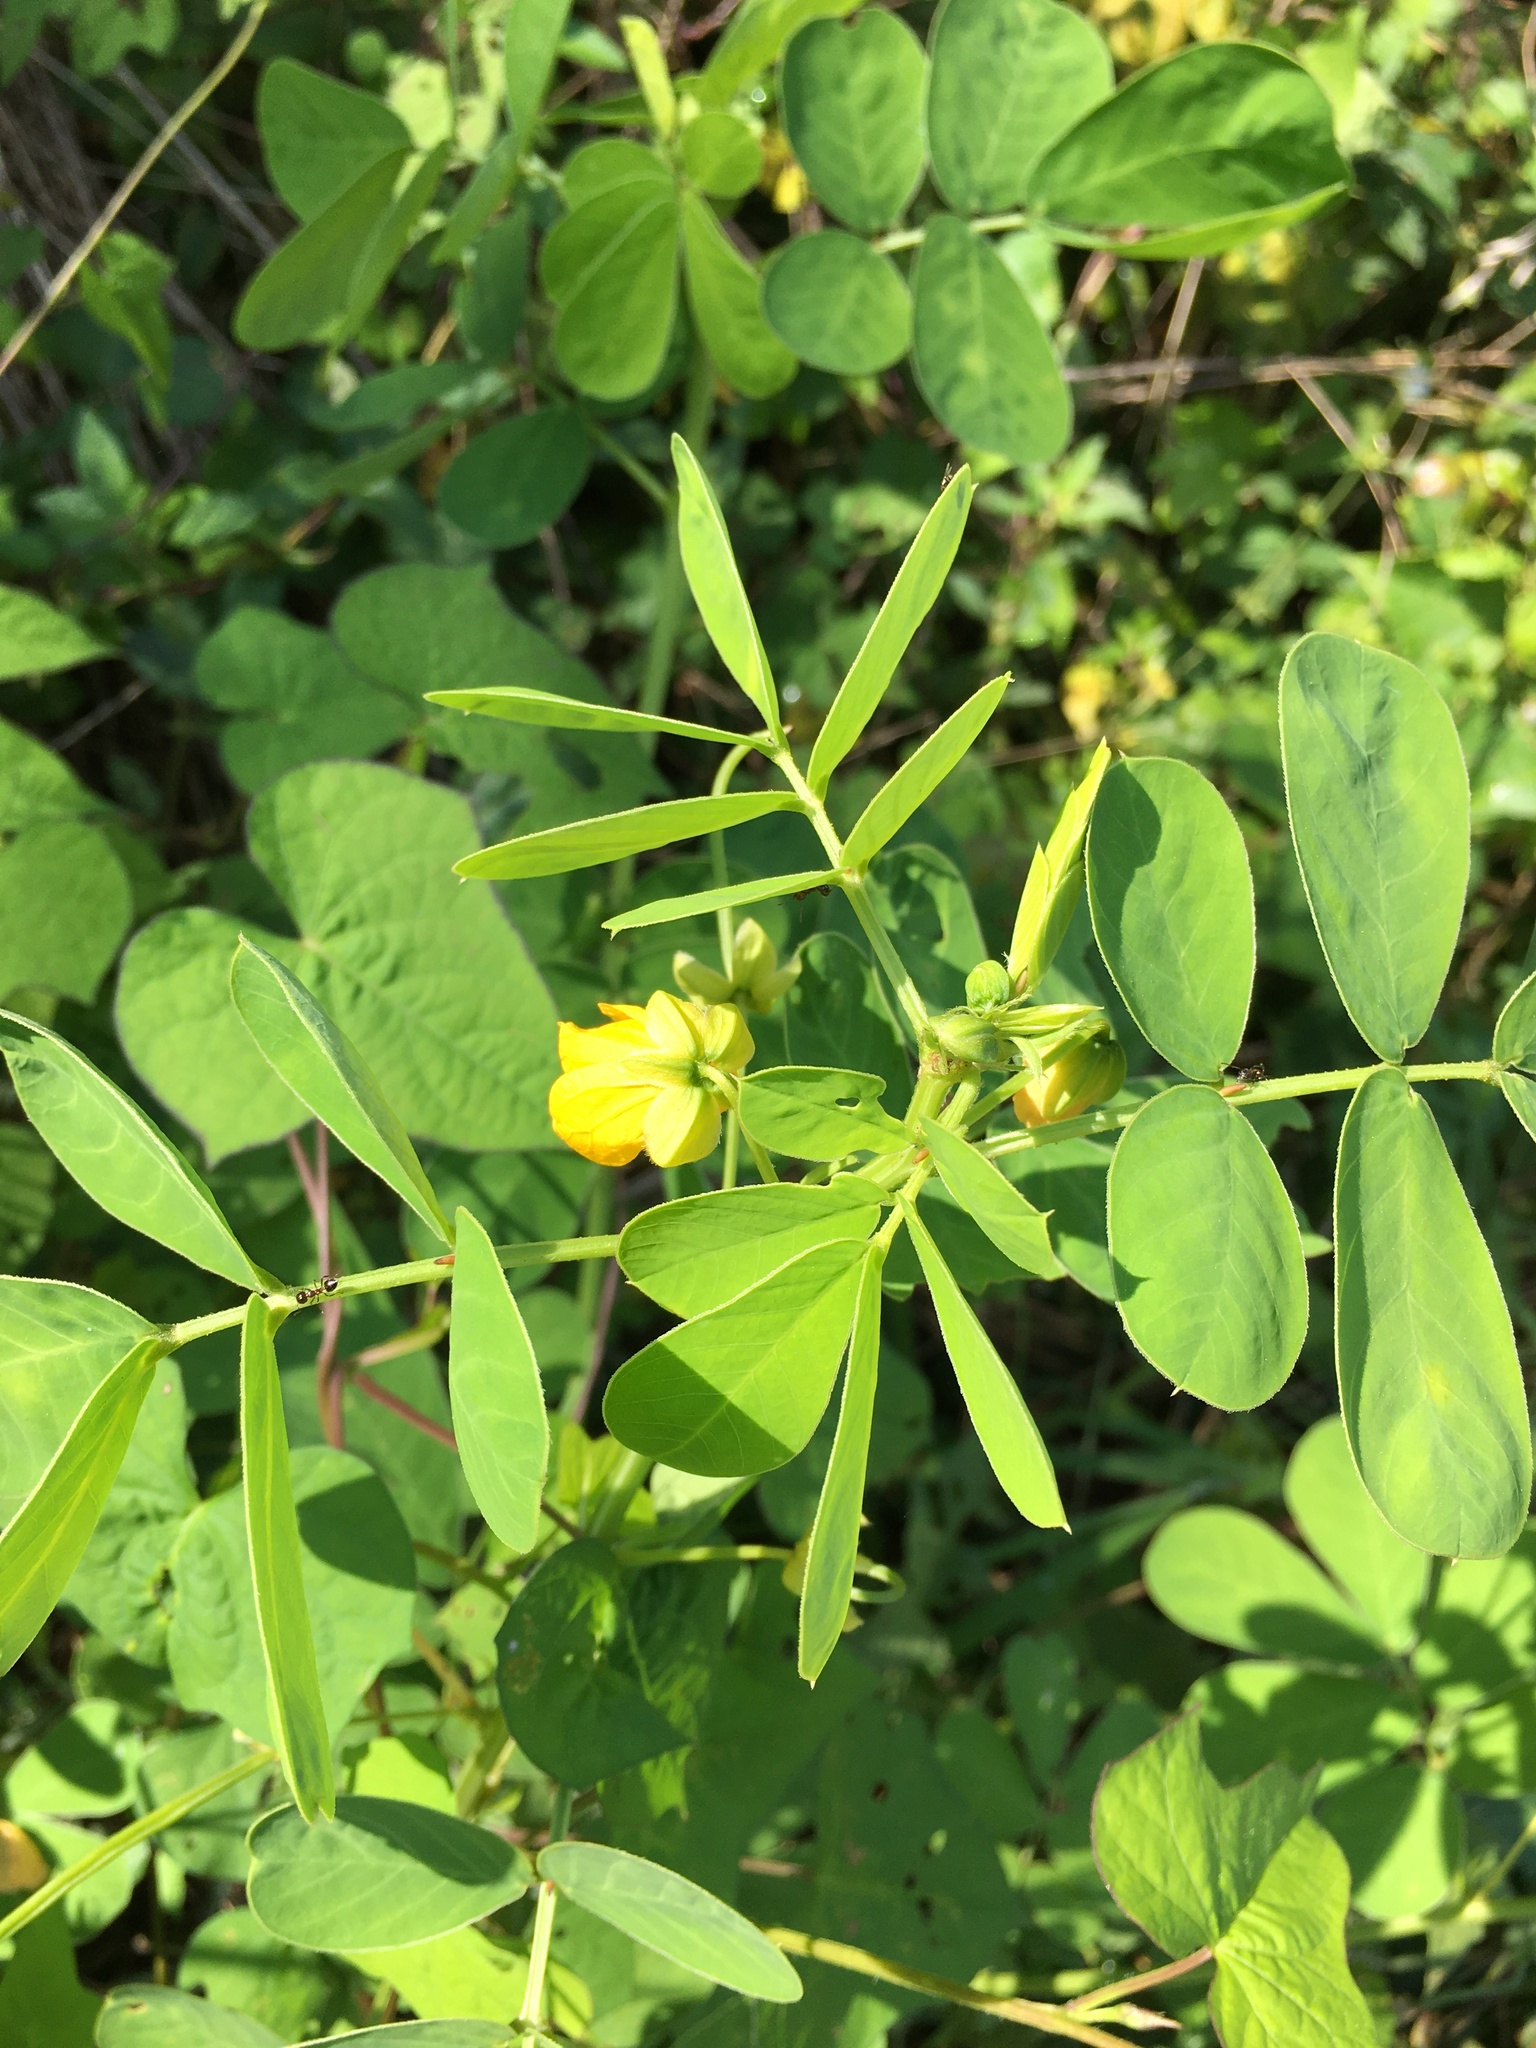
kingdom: Plantae
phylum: Tracheophyta
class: Magnoliopsida
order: Fabales
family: Fabaceae
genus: Senna
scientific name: Senna obtusifolia
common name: Java-bean
